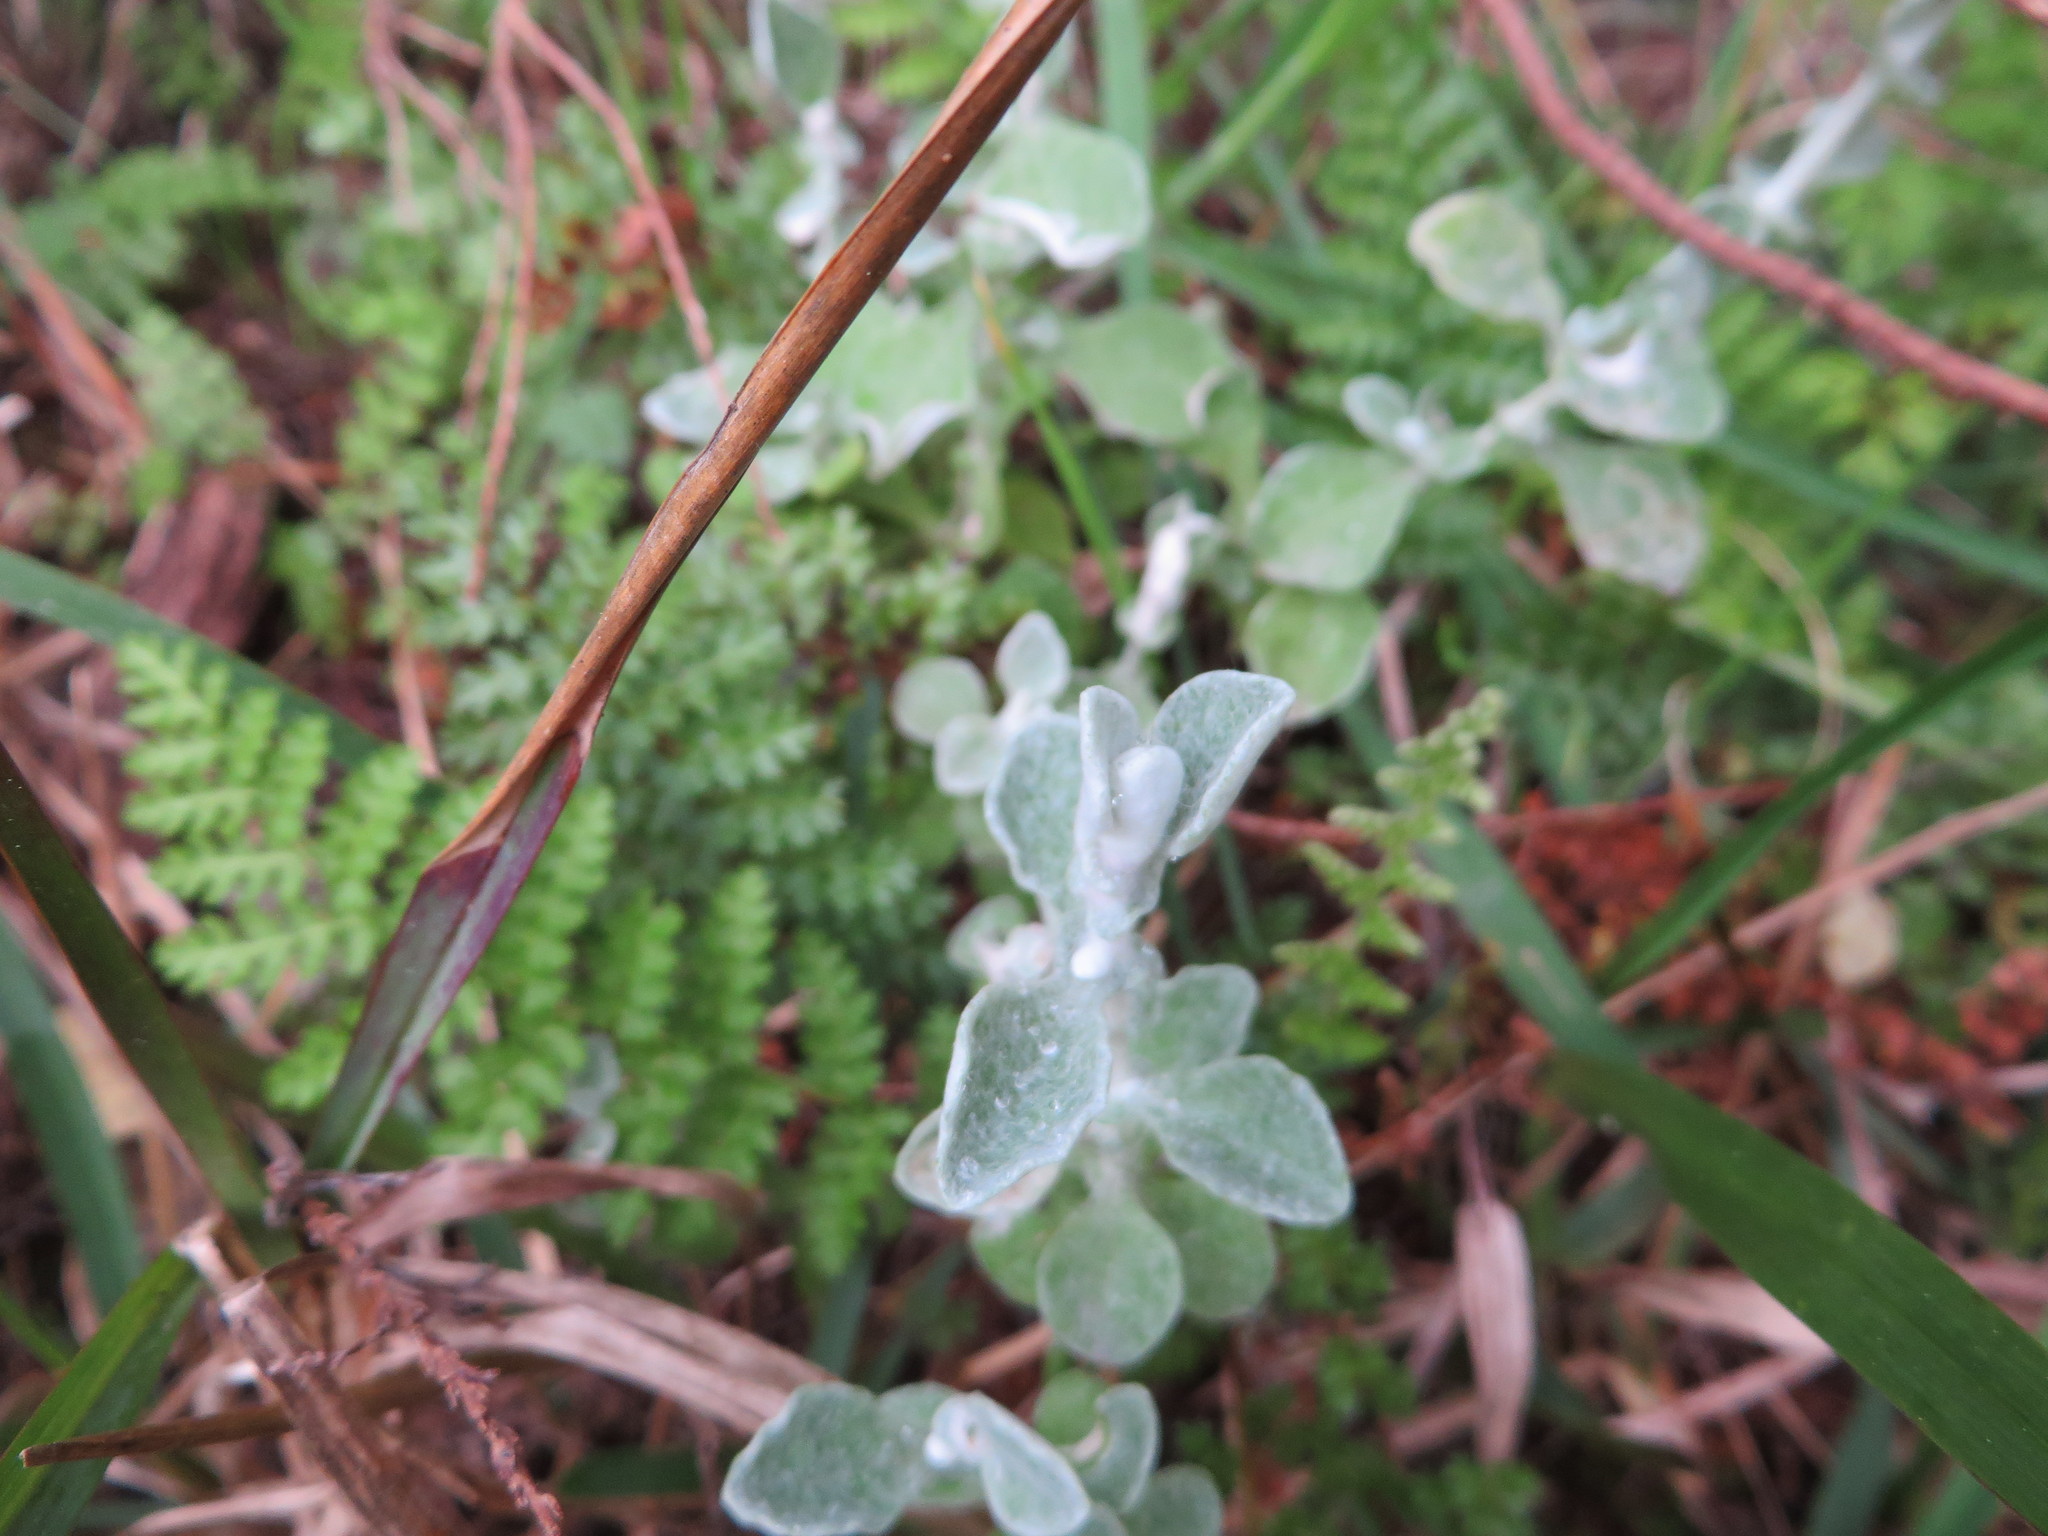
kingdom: Plantae
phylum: Tracheophyta
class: Magnoliopsida
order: Asterales
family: Asteraceae
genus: Helichrysum
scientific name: Helichrysum pandurifolium
